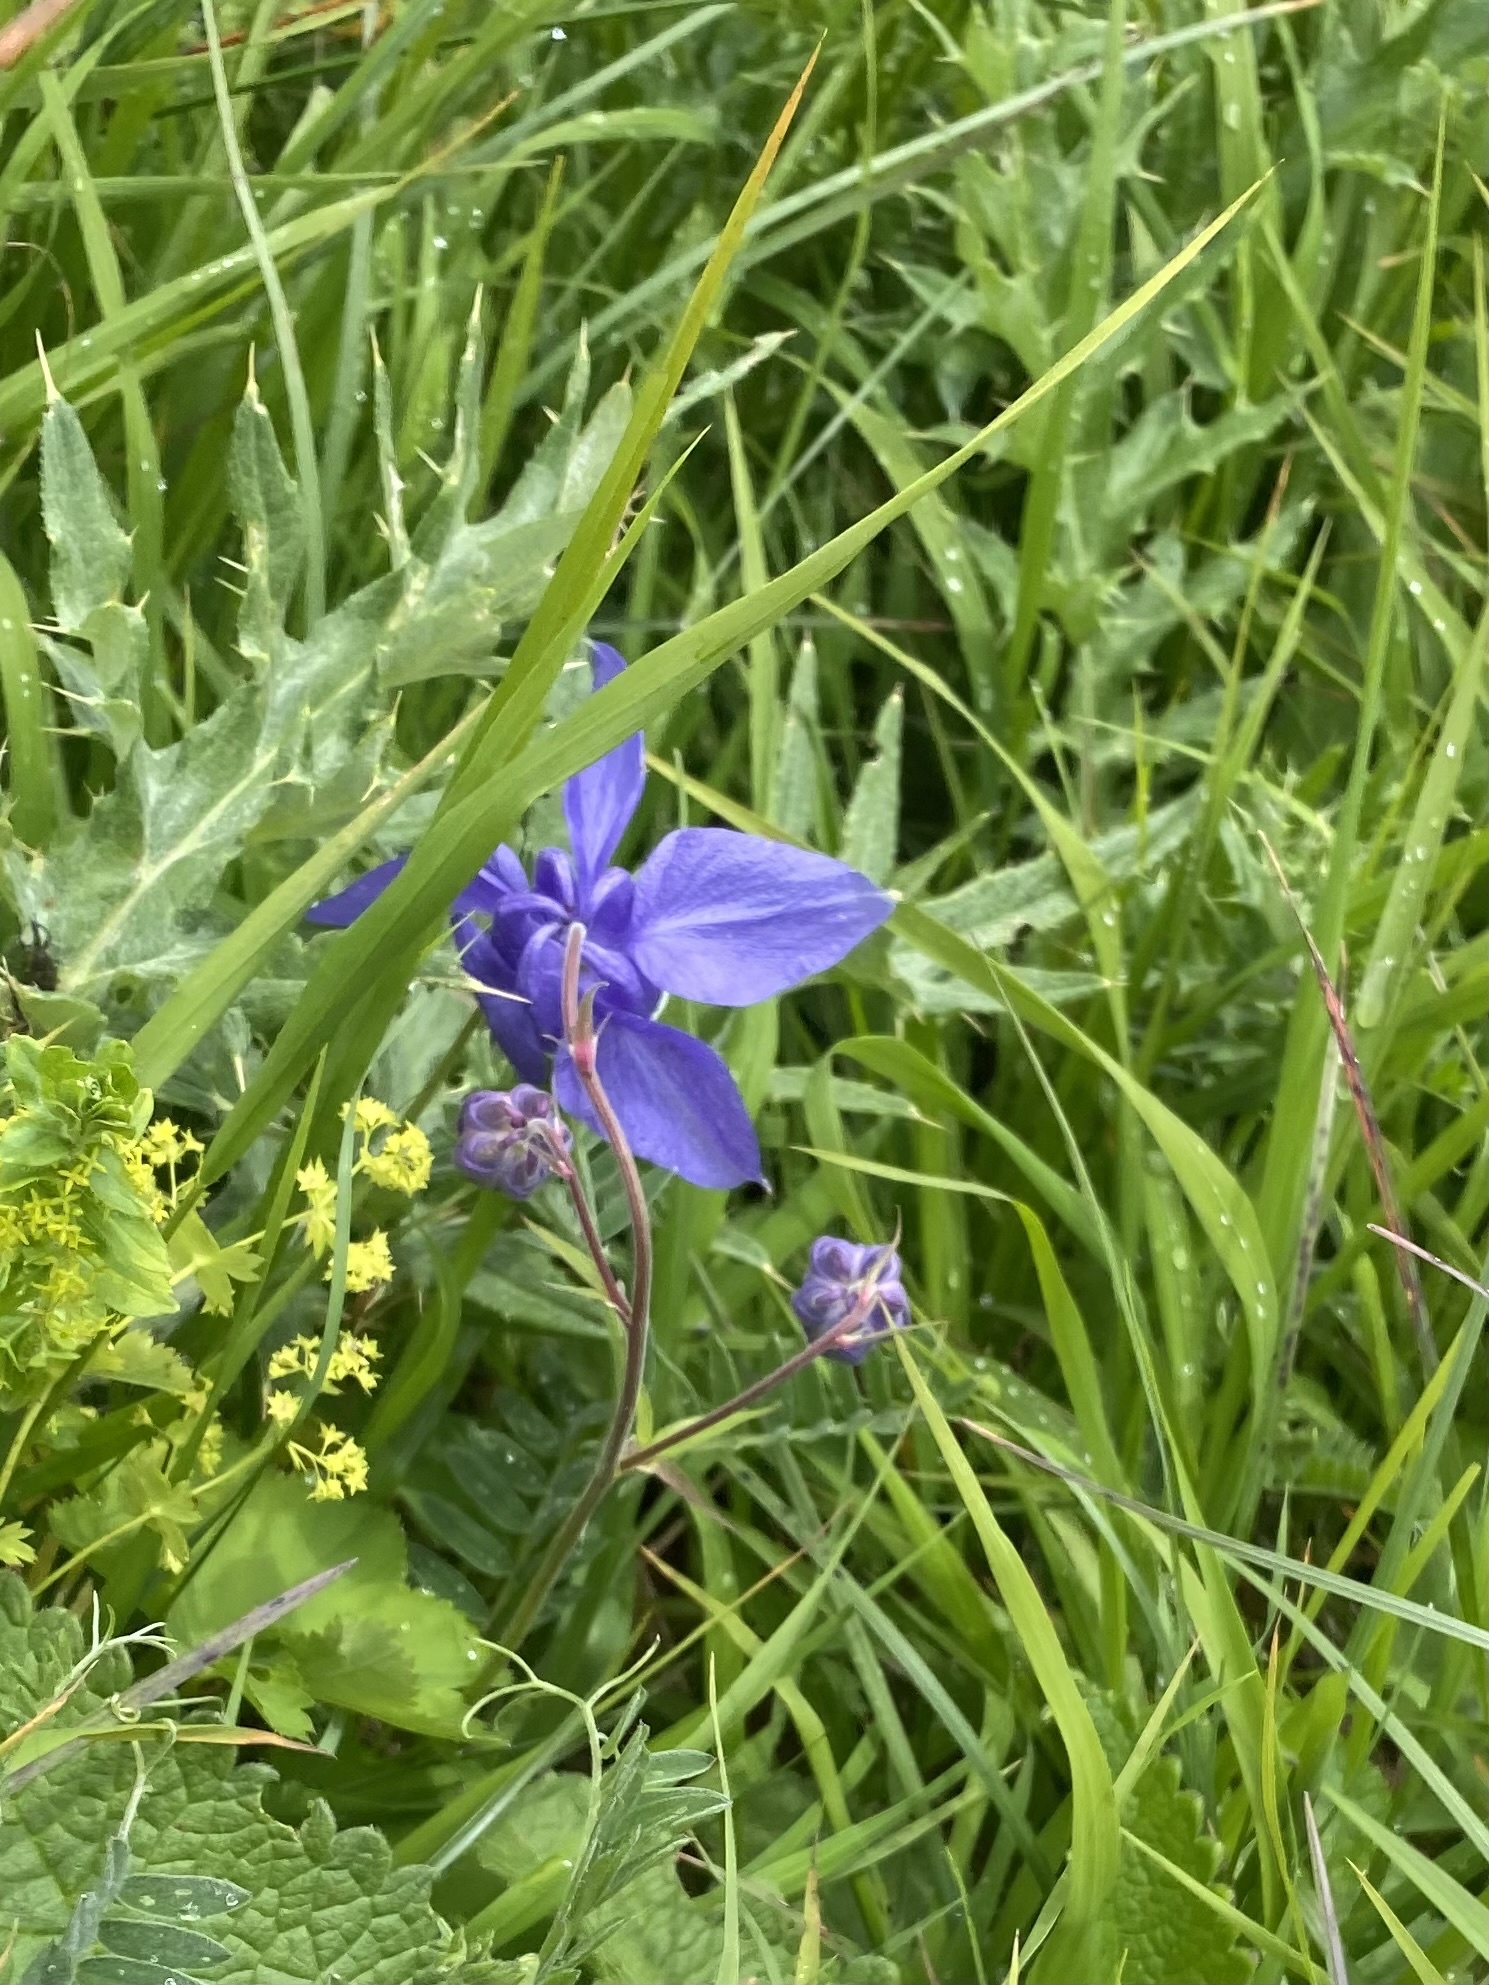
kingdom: Plantae
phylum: Tracheophyta
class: Magnoliopsida
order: Ranunculales
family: Ranunculaceae
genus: Aquilegia
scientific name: Aquilegia olympica
